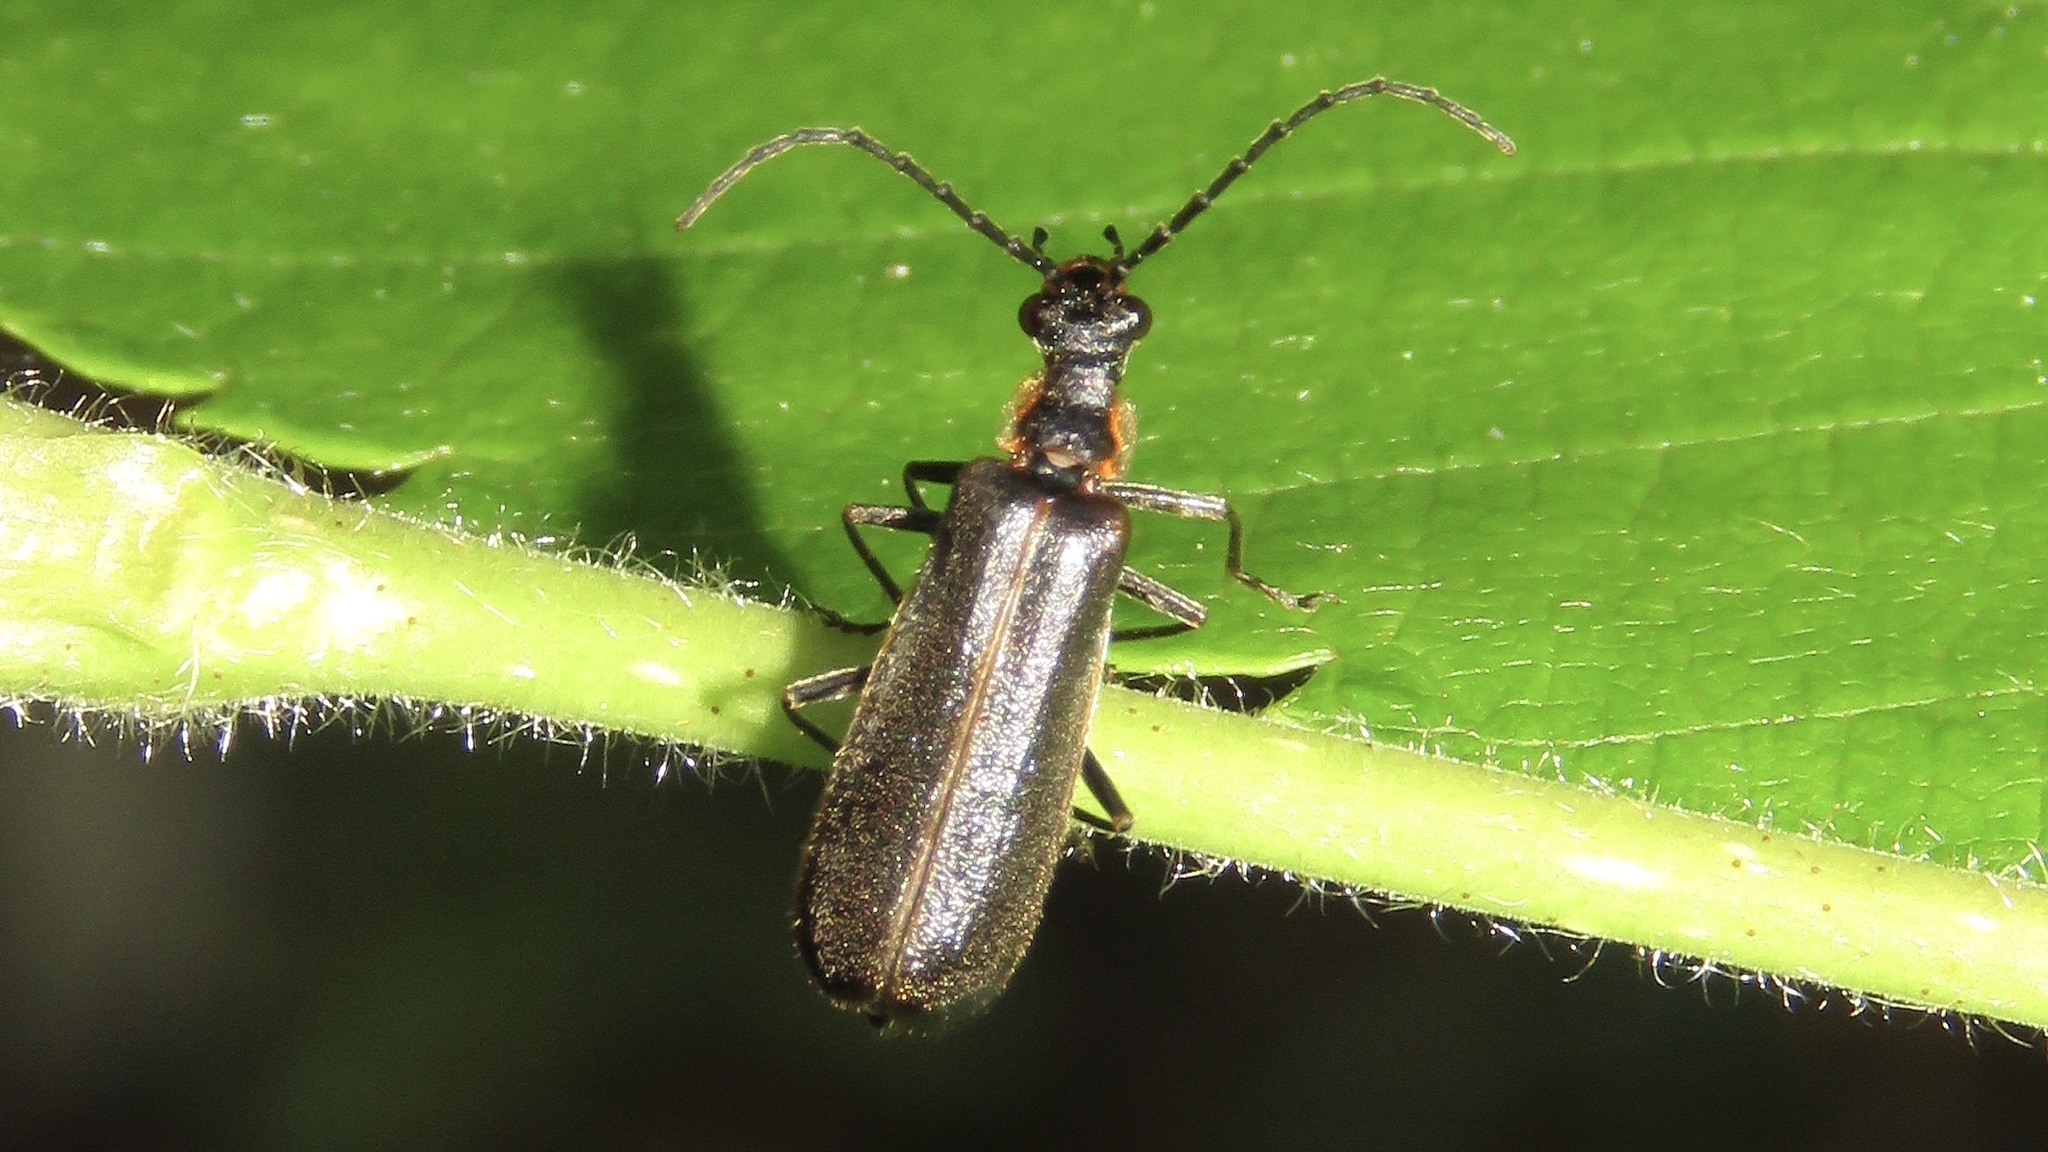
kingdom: Animalia
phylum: Arthropoda
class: Insecta
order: Coleoptera
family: Cantharidae
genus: Podabrus
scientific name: Podabrus punctulatus
